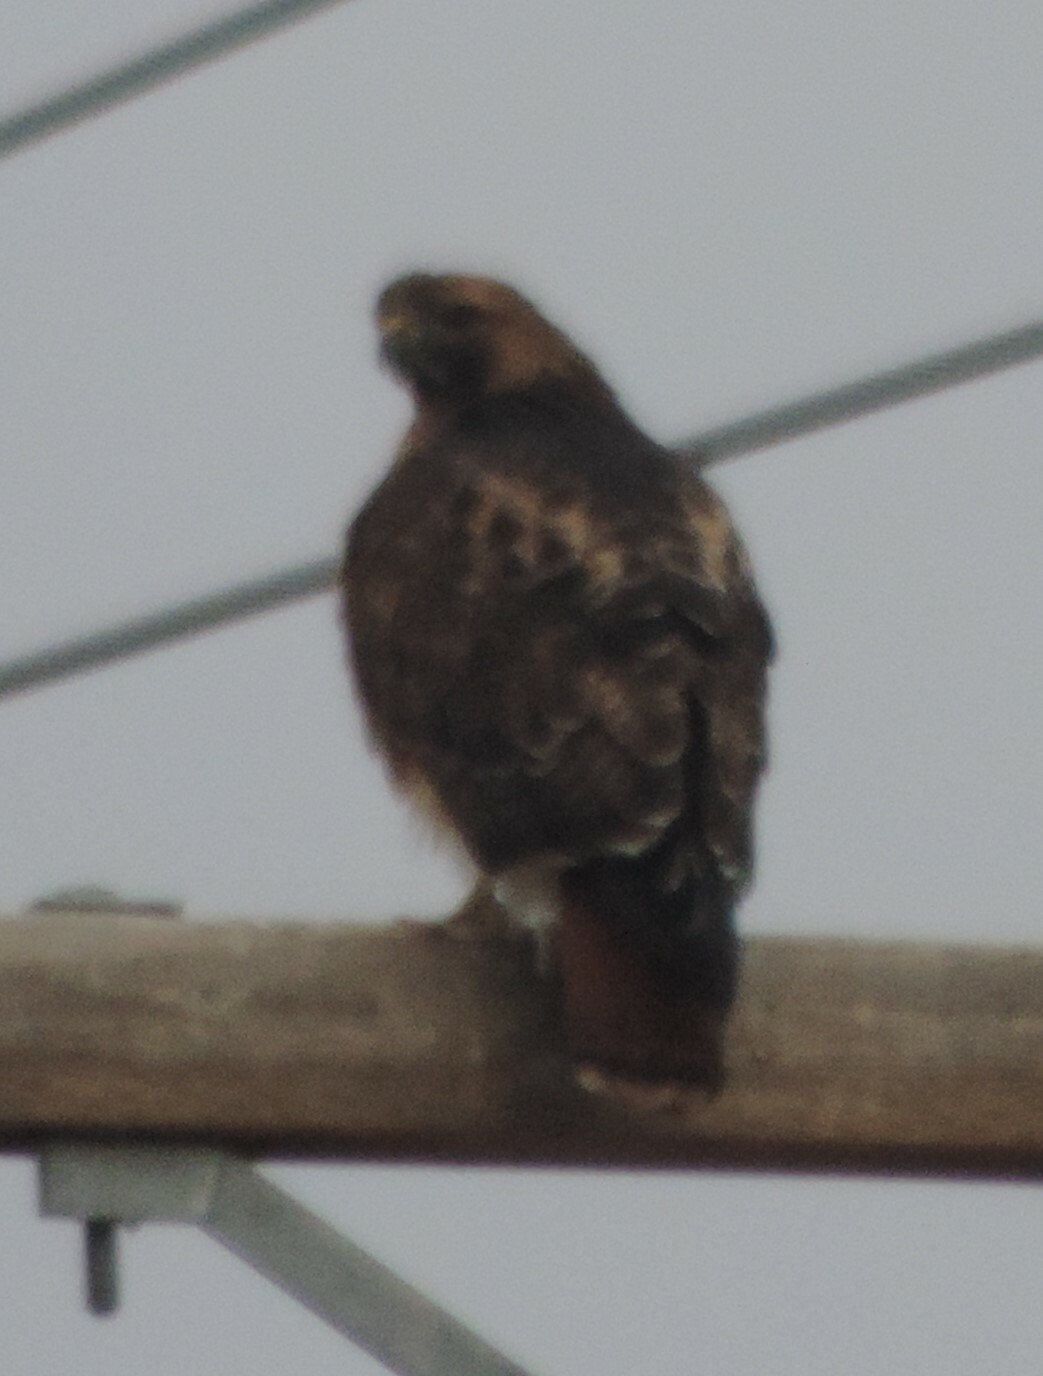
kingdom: Animalia
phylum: Chordata
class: Aves
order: Accipitriformes
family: Accipitridae
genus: Buteo
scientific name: Buteo jamaicensis
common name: Red-tailed hawk
